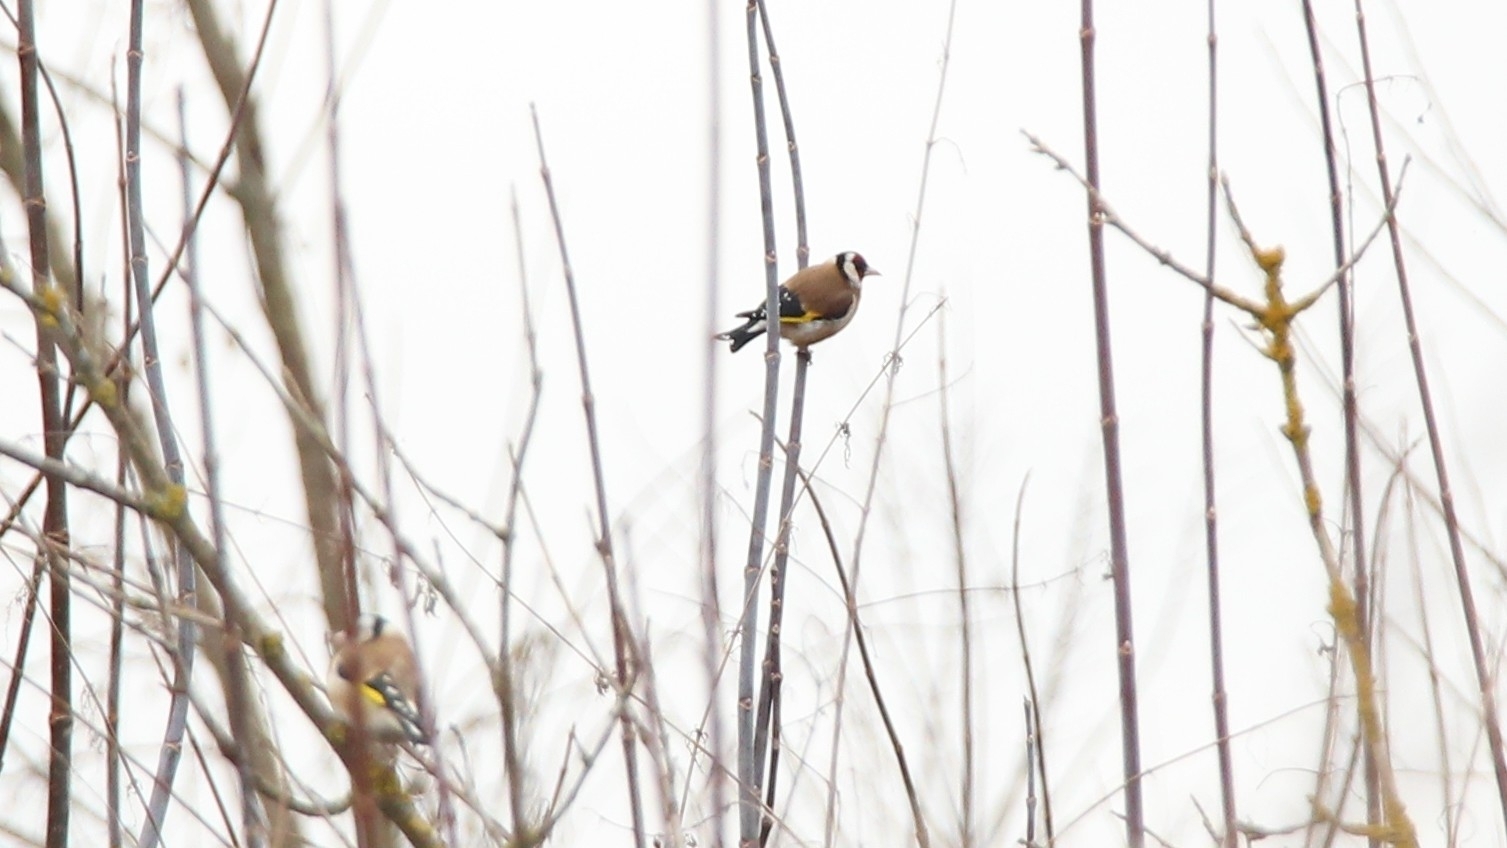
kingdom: Animalia
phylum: Chordata
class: Aves
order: Passeriformes
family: Fringillidae
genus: Carduelis
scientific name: Carduelis carduelis
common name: European goldfinch
